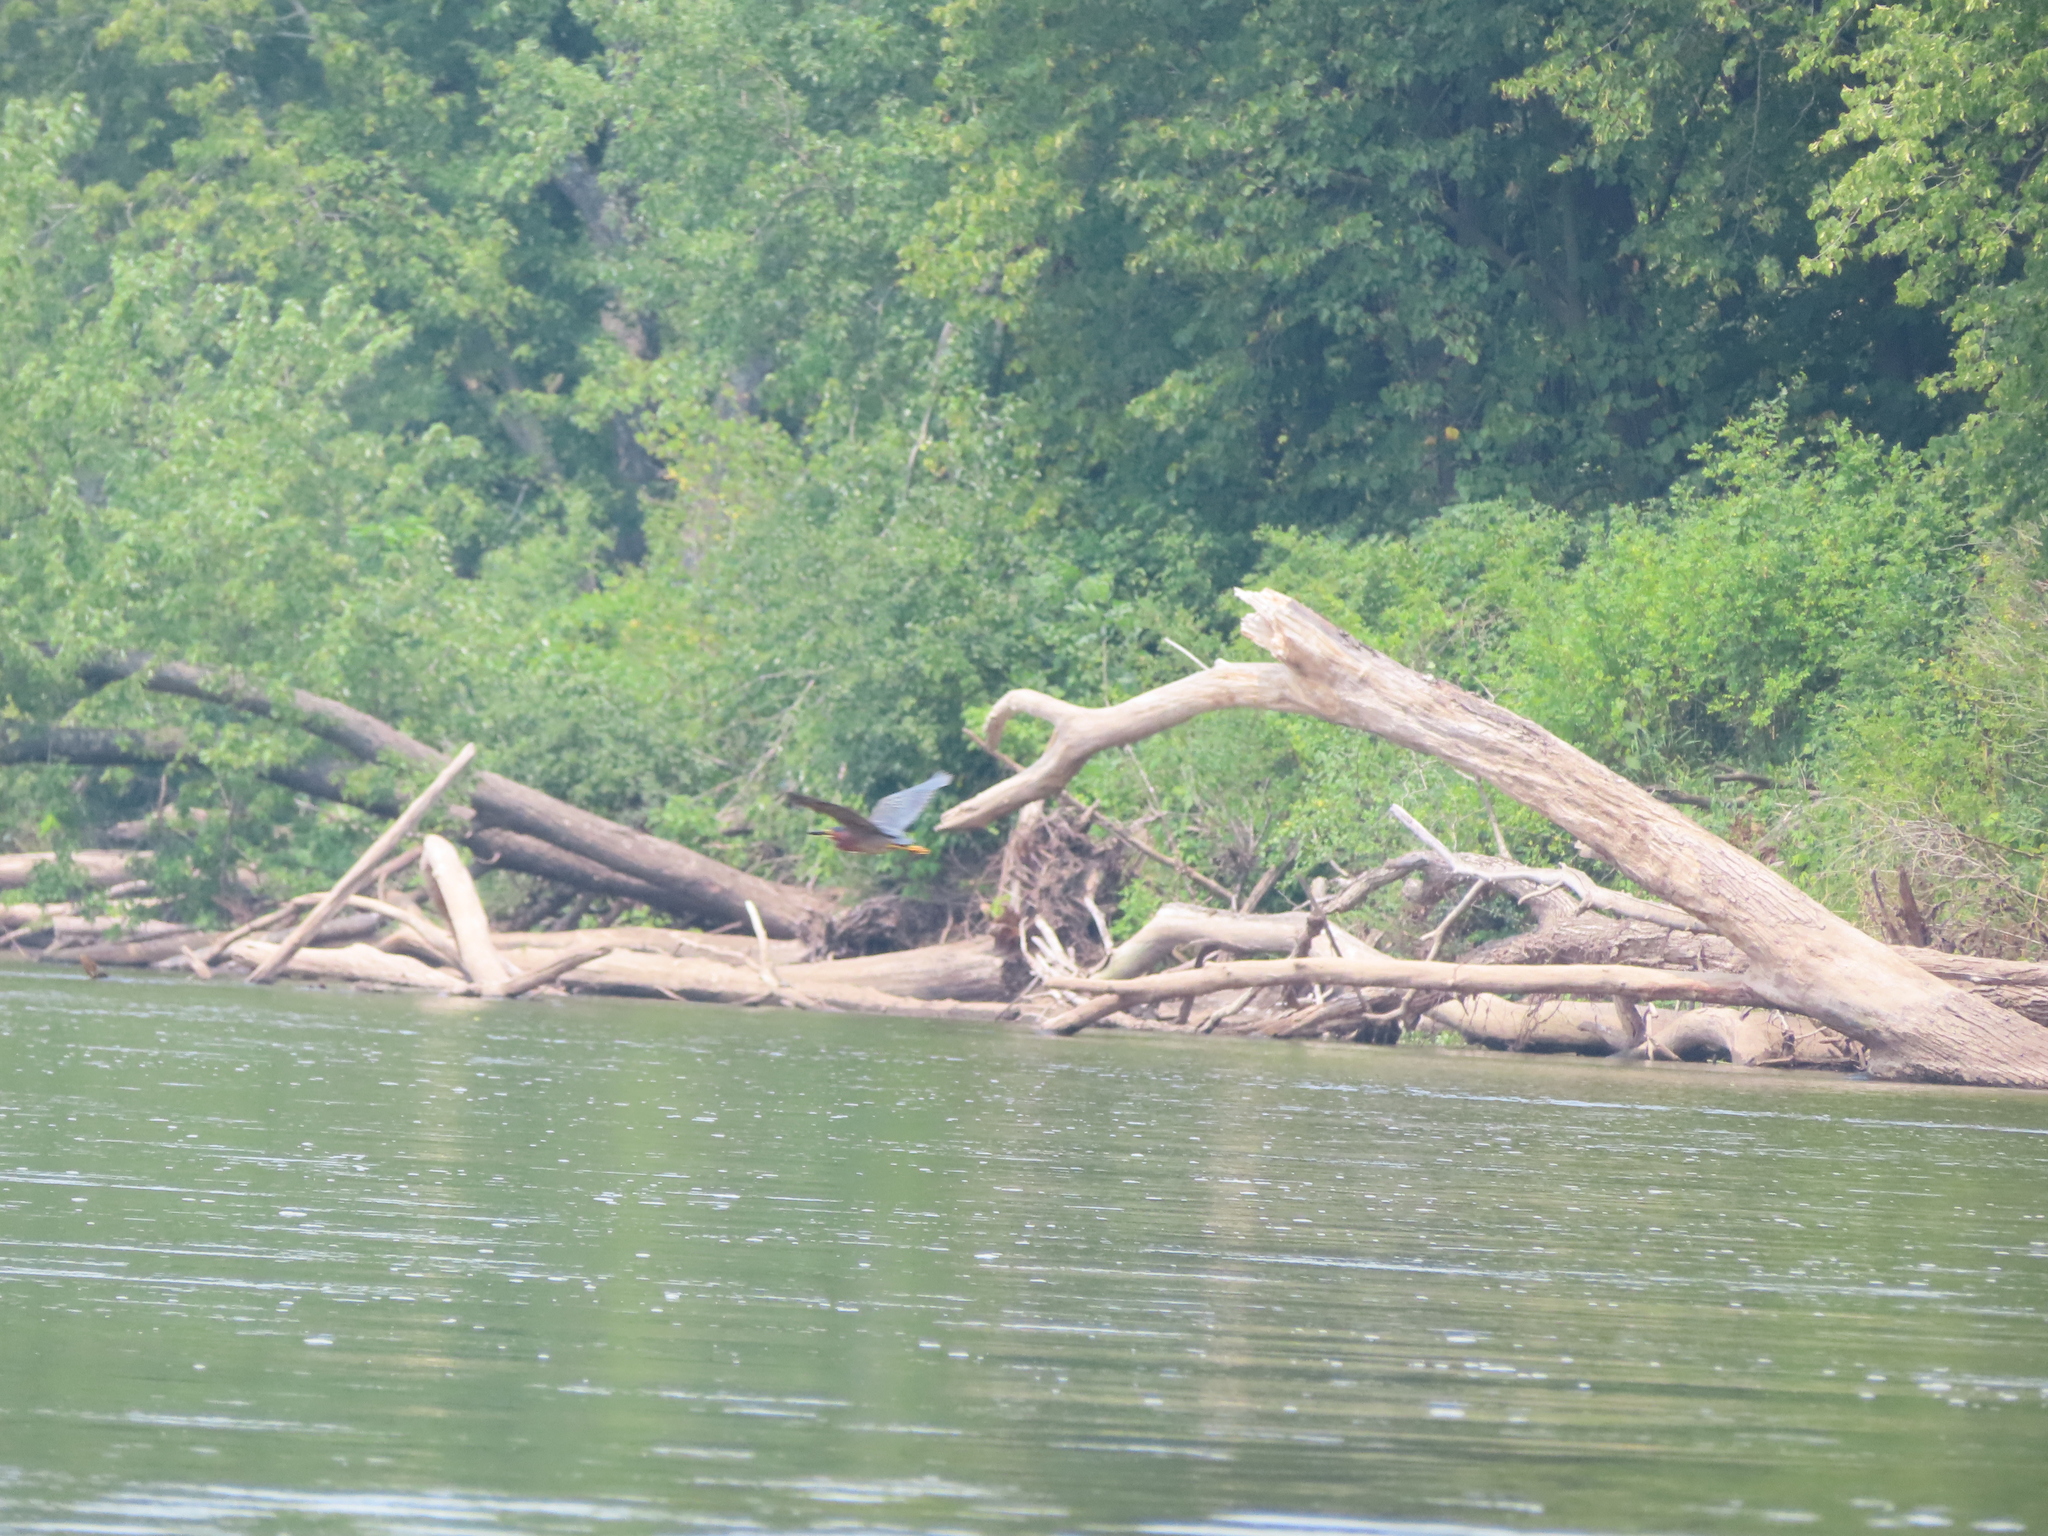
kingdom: Animalia
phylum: Chordata
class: Aves
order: Pelecaniformes
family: Ardeidae
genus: Butorides
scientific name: Butorides virescens
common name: Green heron
